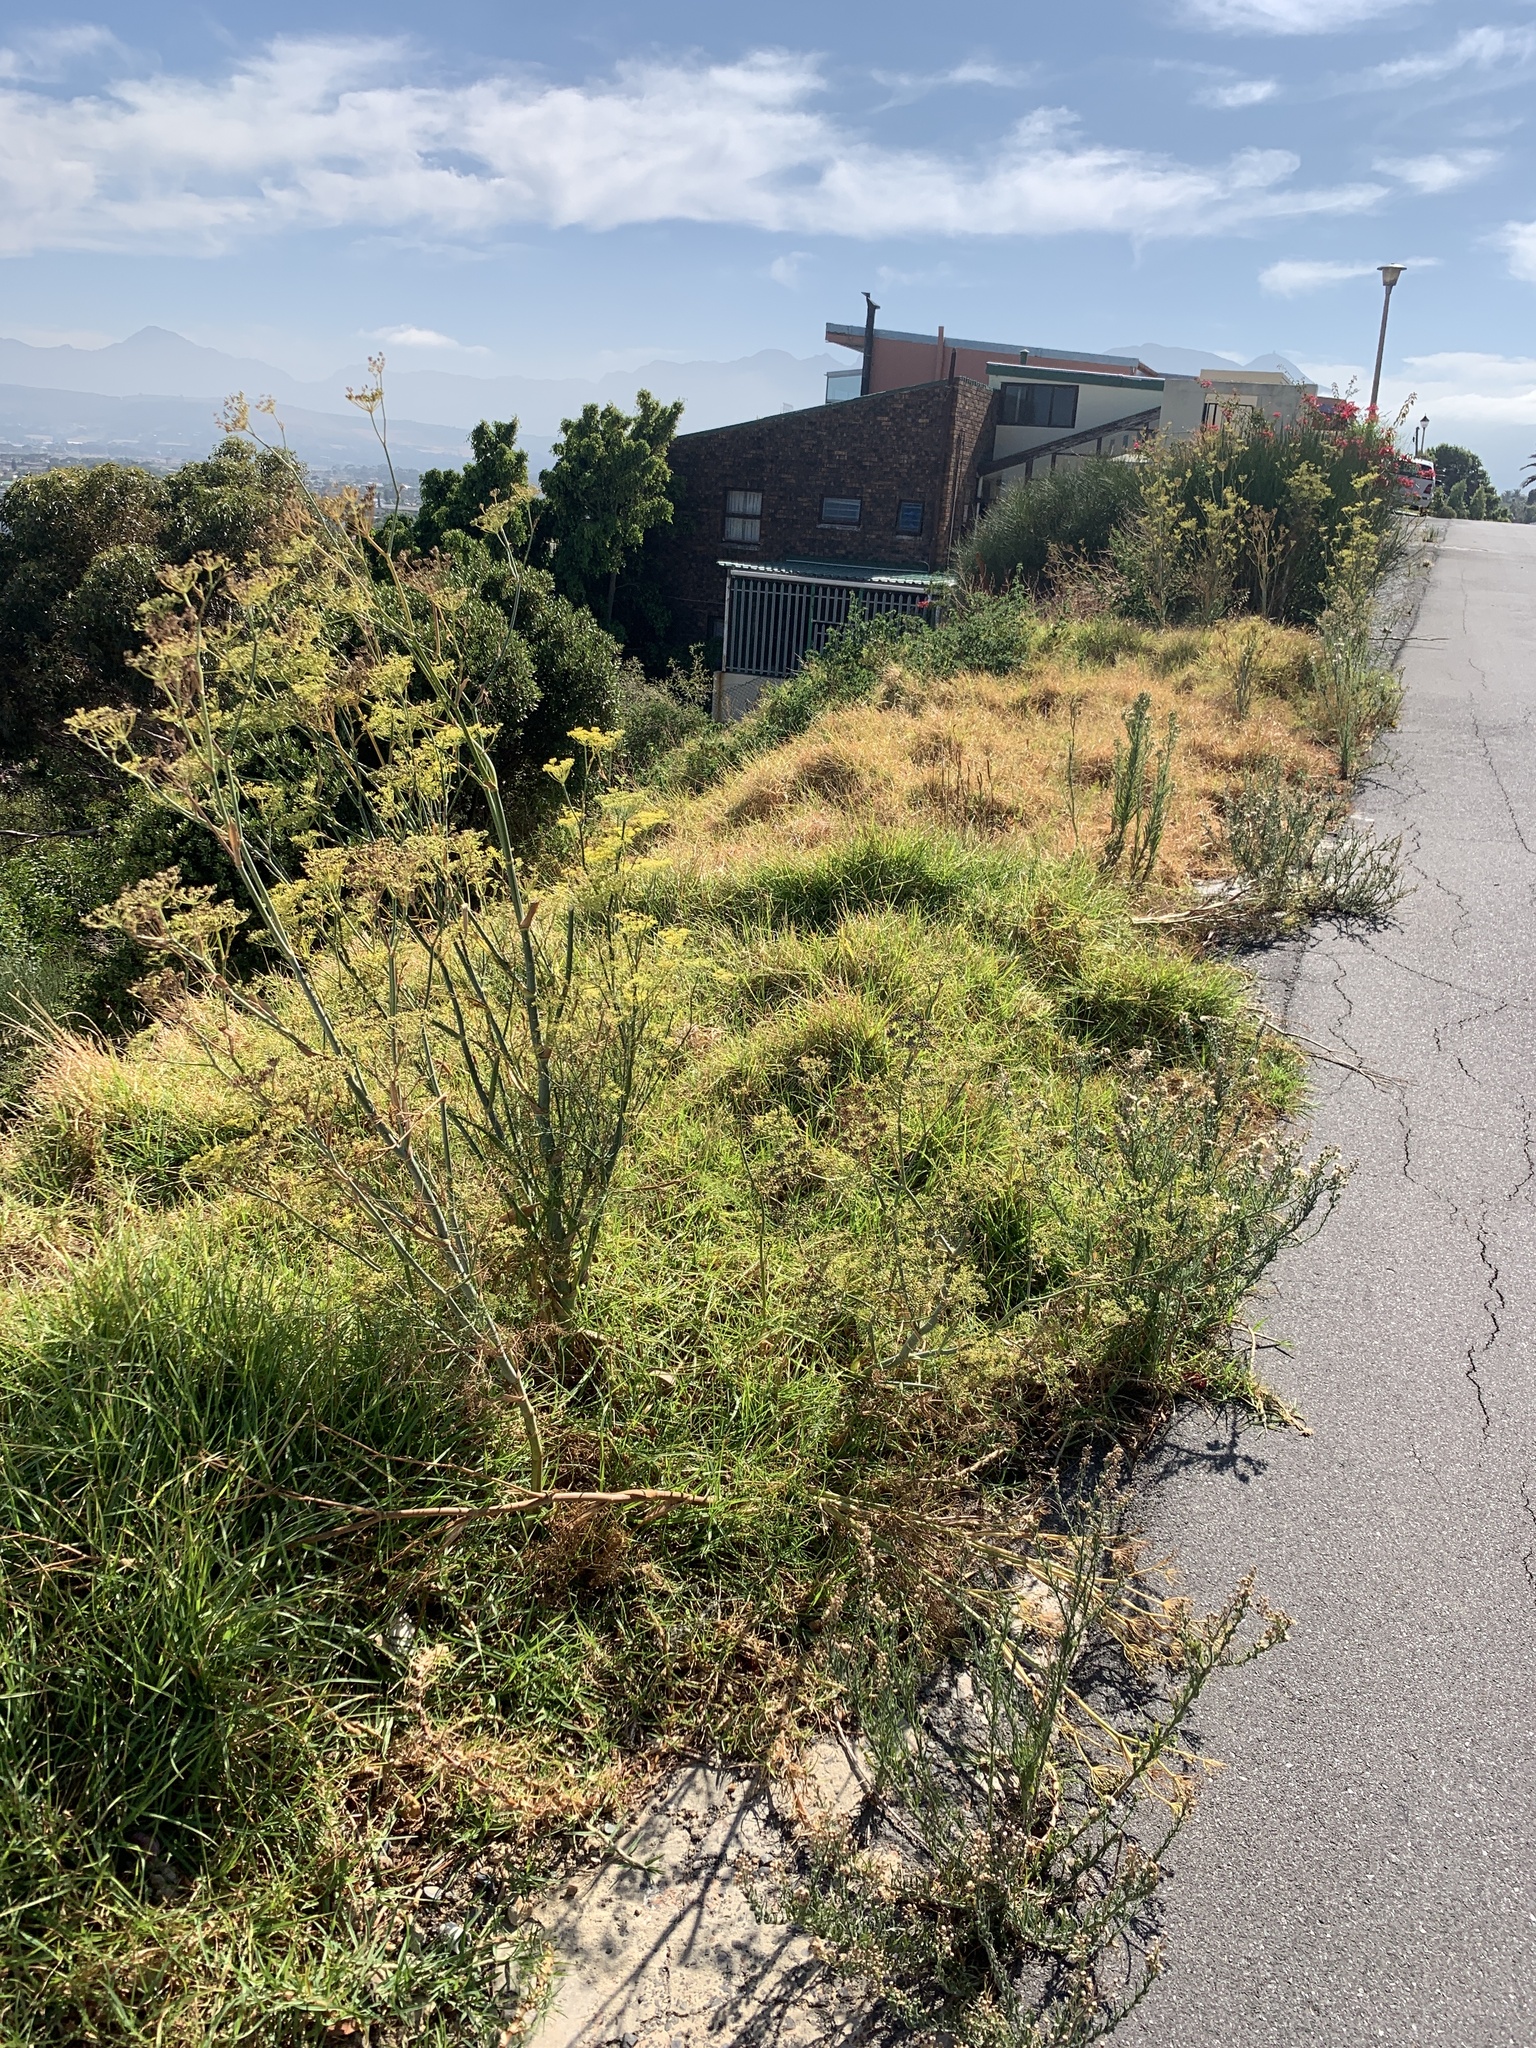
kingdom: Plantae
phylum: Tracheophyta
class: Magnoliopsida
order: Apiales
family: Apiaceae
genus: Foeniculum
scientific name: Foeniculum vulgare
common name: Fennel
